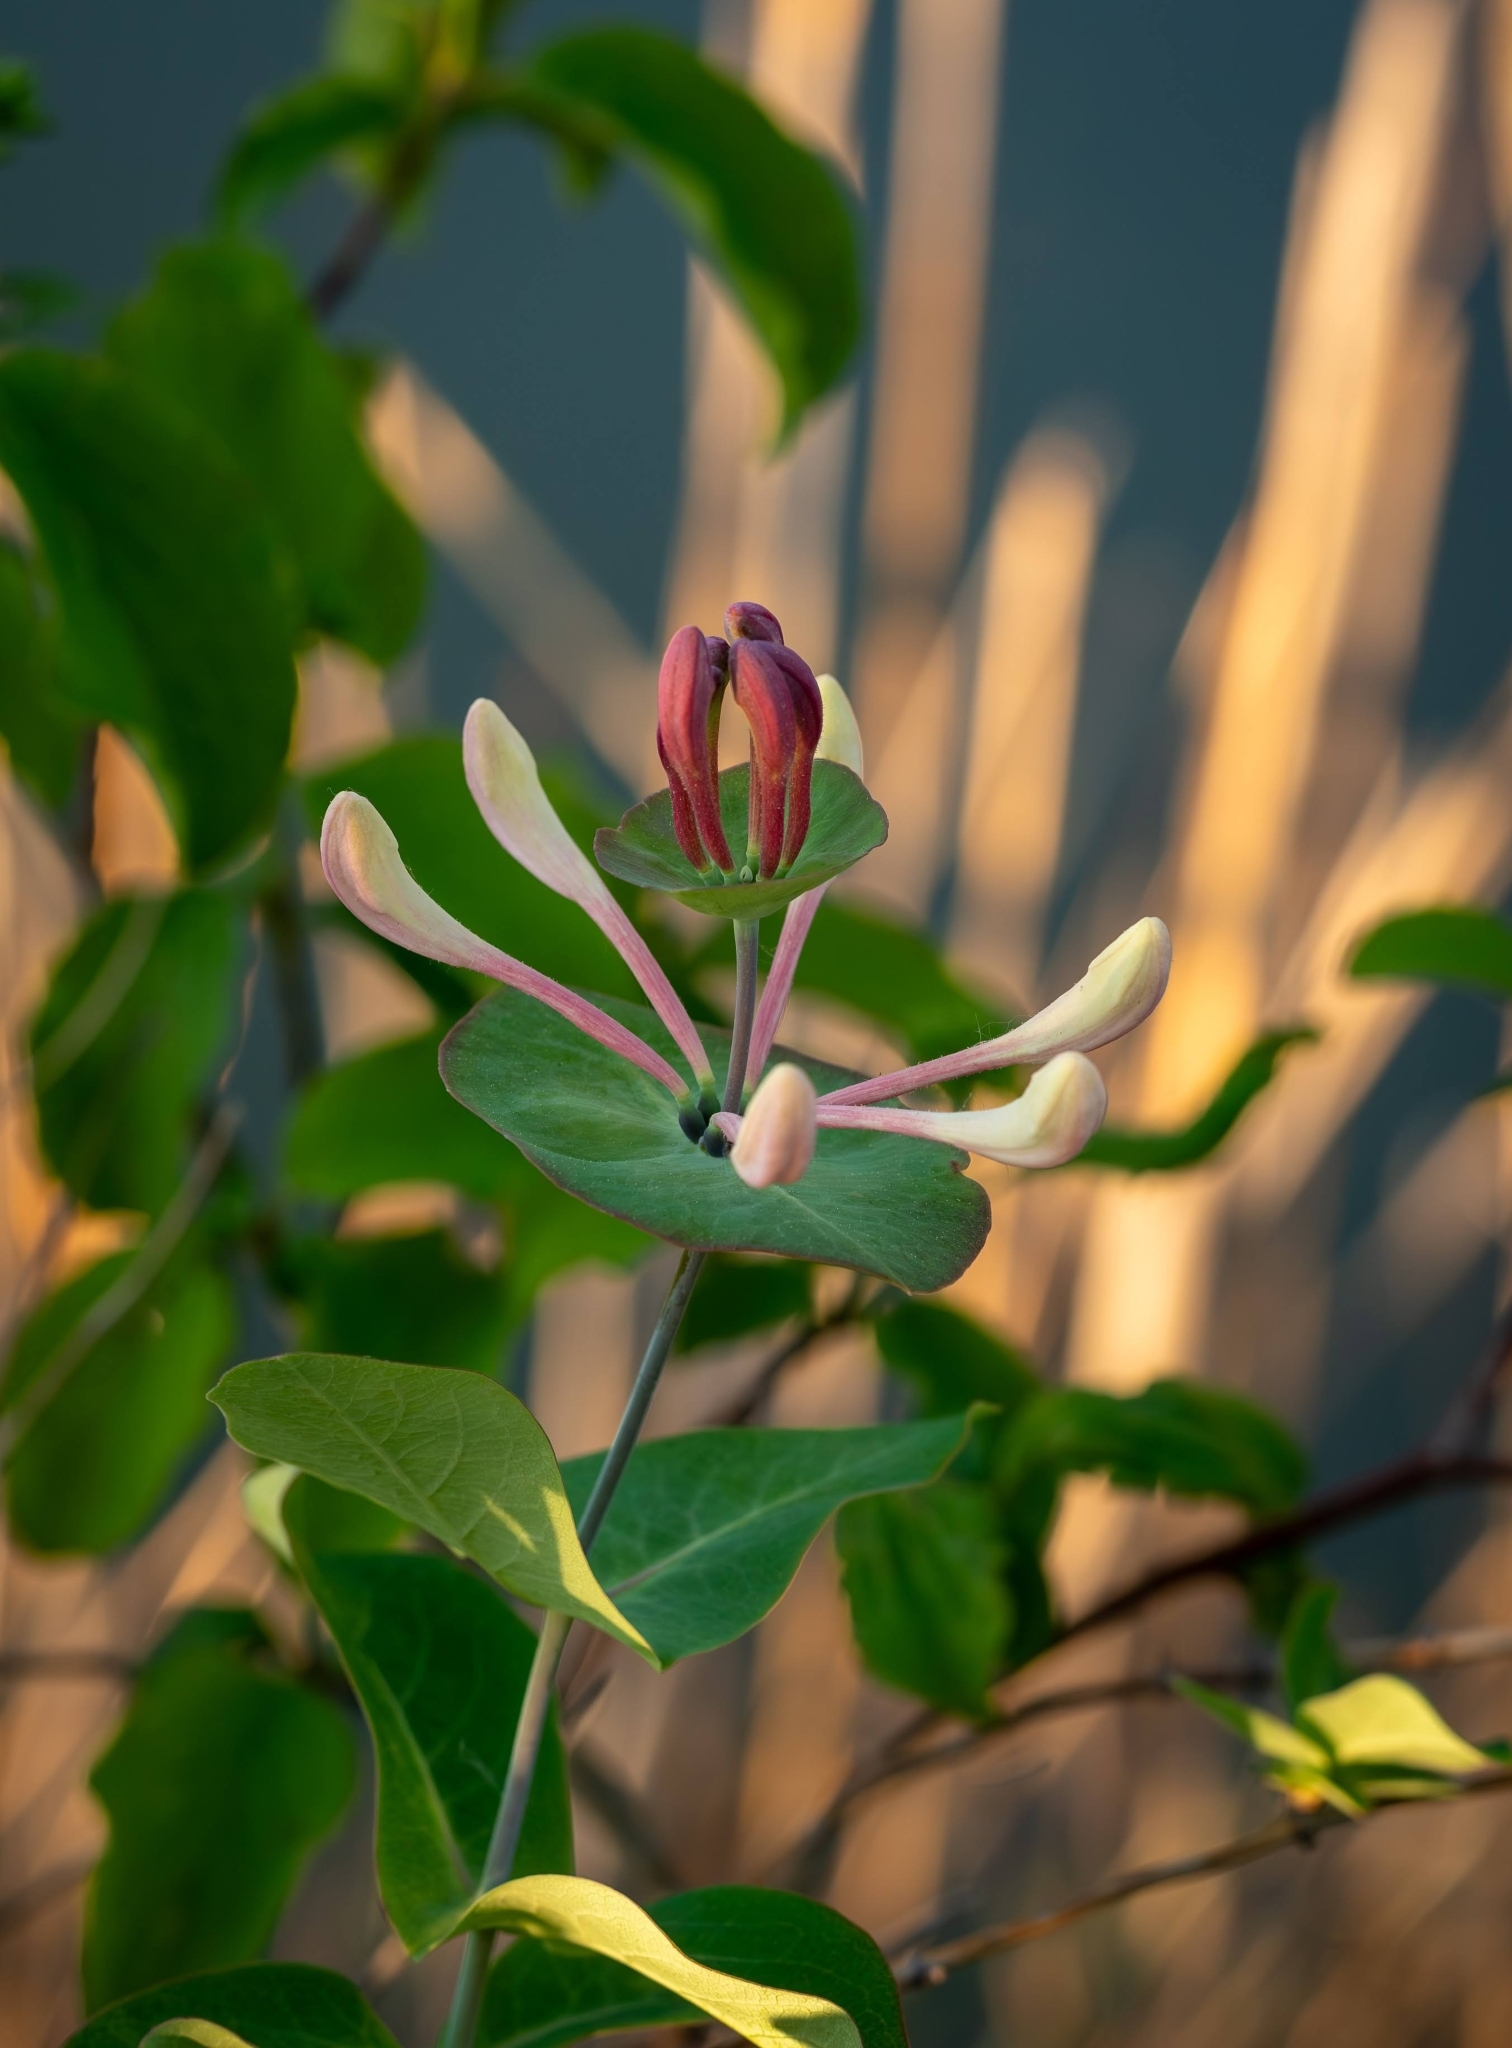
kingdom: Plantae
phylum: Tracheophyta
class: Magnoliopsida
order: Dipsacales
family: Caprifoliaceae
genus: Lonicera
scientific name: Lonicera caprifolium
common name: Perfoliate honeysuckle
